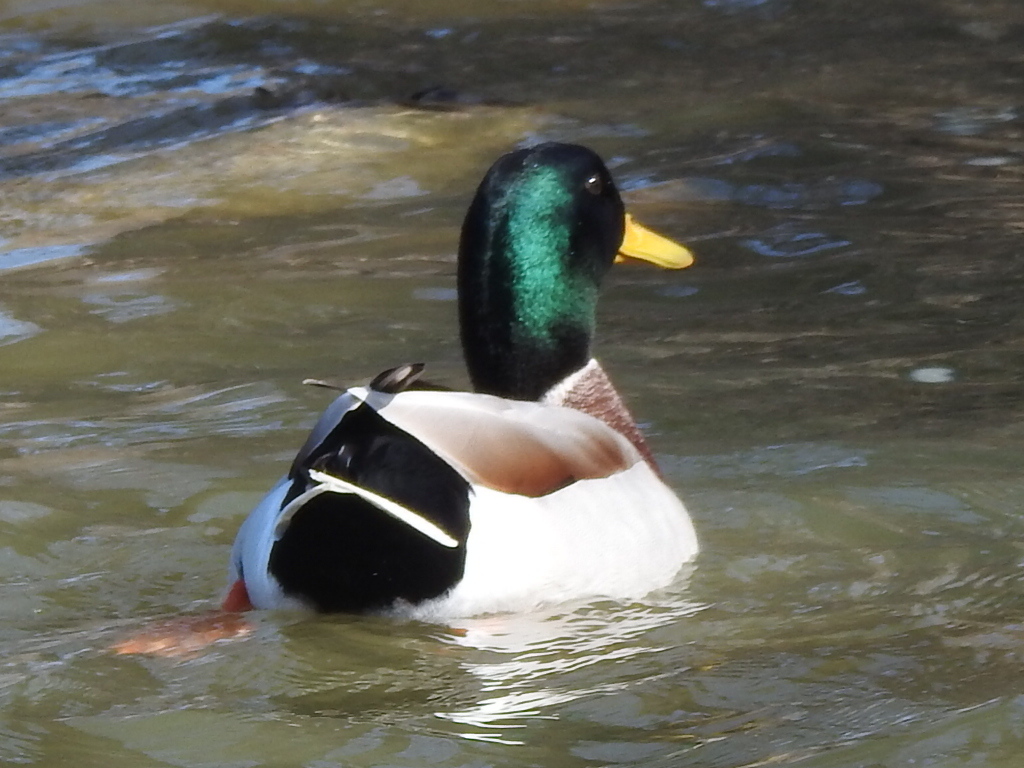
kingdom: Animalia
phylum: Chordata
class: Aves
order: Anseriformes
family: Anatidae
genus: Anas
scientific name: Anas platyrhynchos
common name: Mallard
